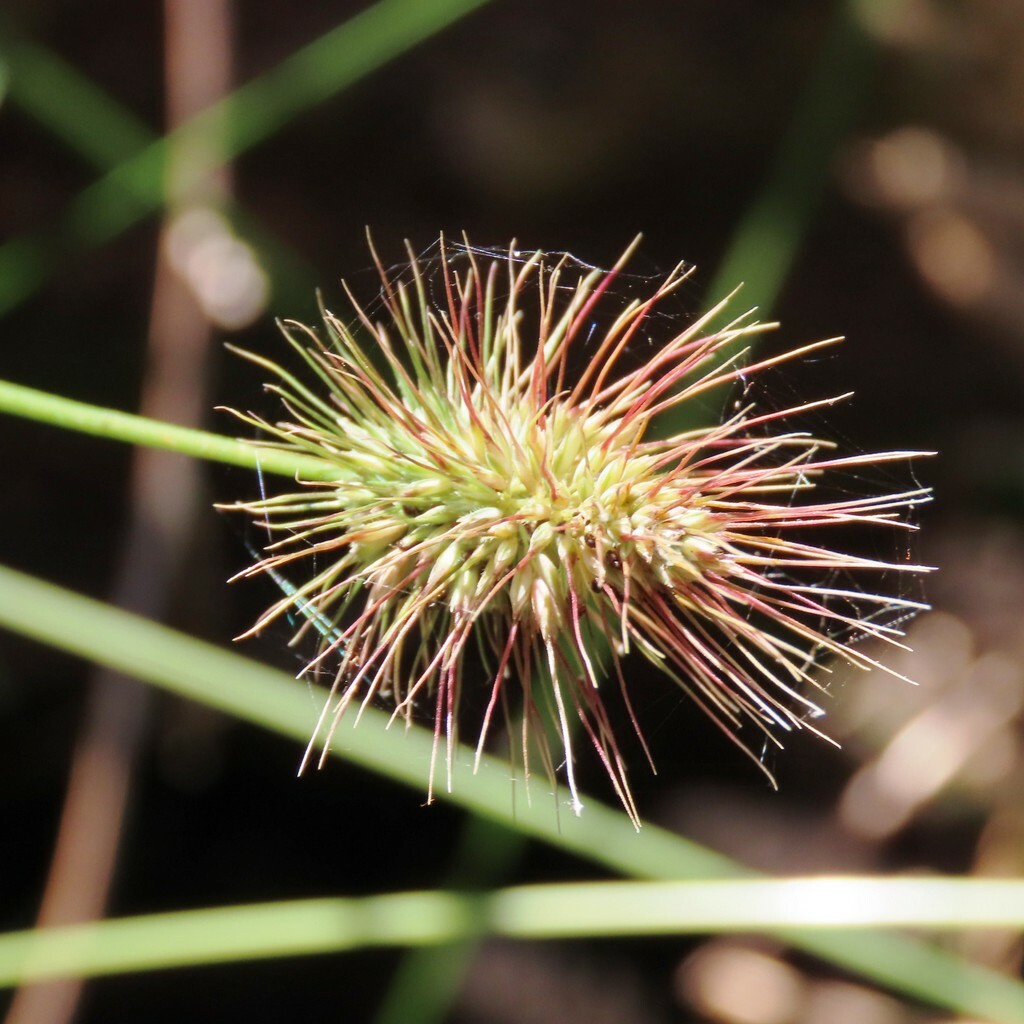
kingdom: Plantae
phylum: Tracheophyta
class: Liliopsida
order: Poales
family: Poaceae
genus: Echinopogon
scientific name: Echinopogon ovatus
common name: Hedgehog-grass
